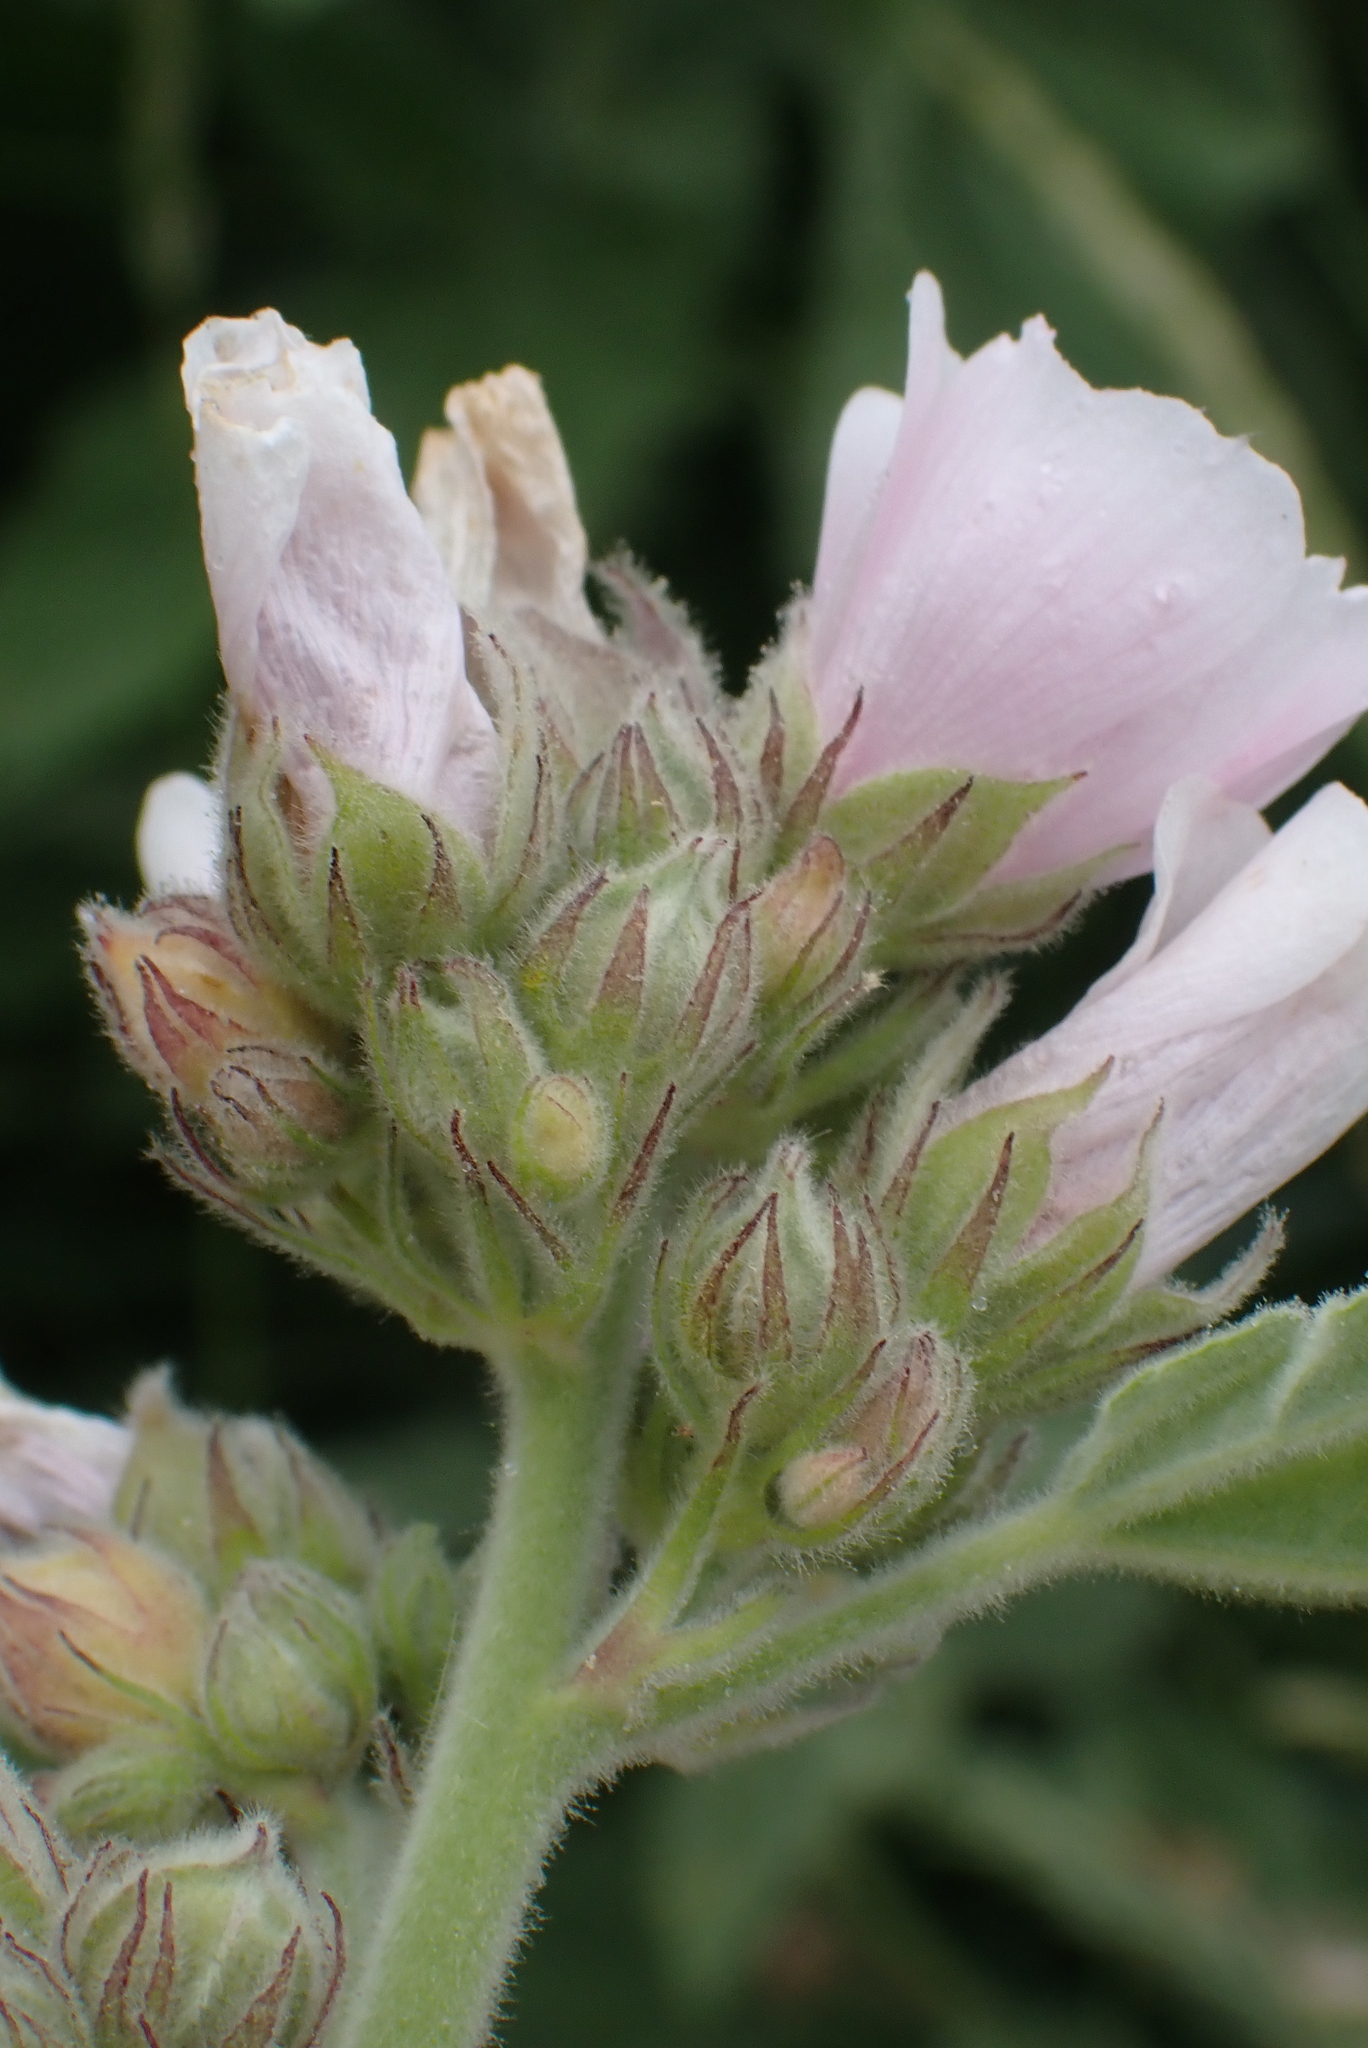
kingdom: Plantae
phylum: Tracheophyta
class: Magnoliopsida
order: Malvales
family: Malvaceae
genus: Althaea
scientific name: Althaea officinalis
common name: Marsh-mallow
